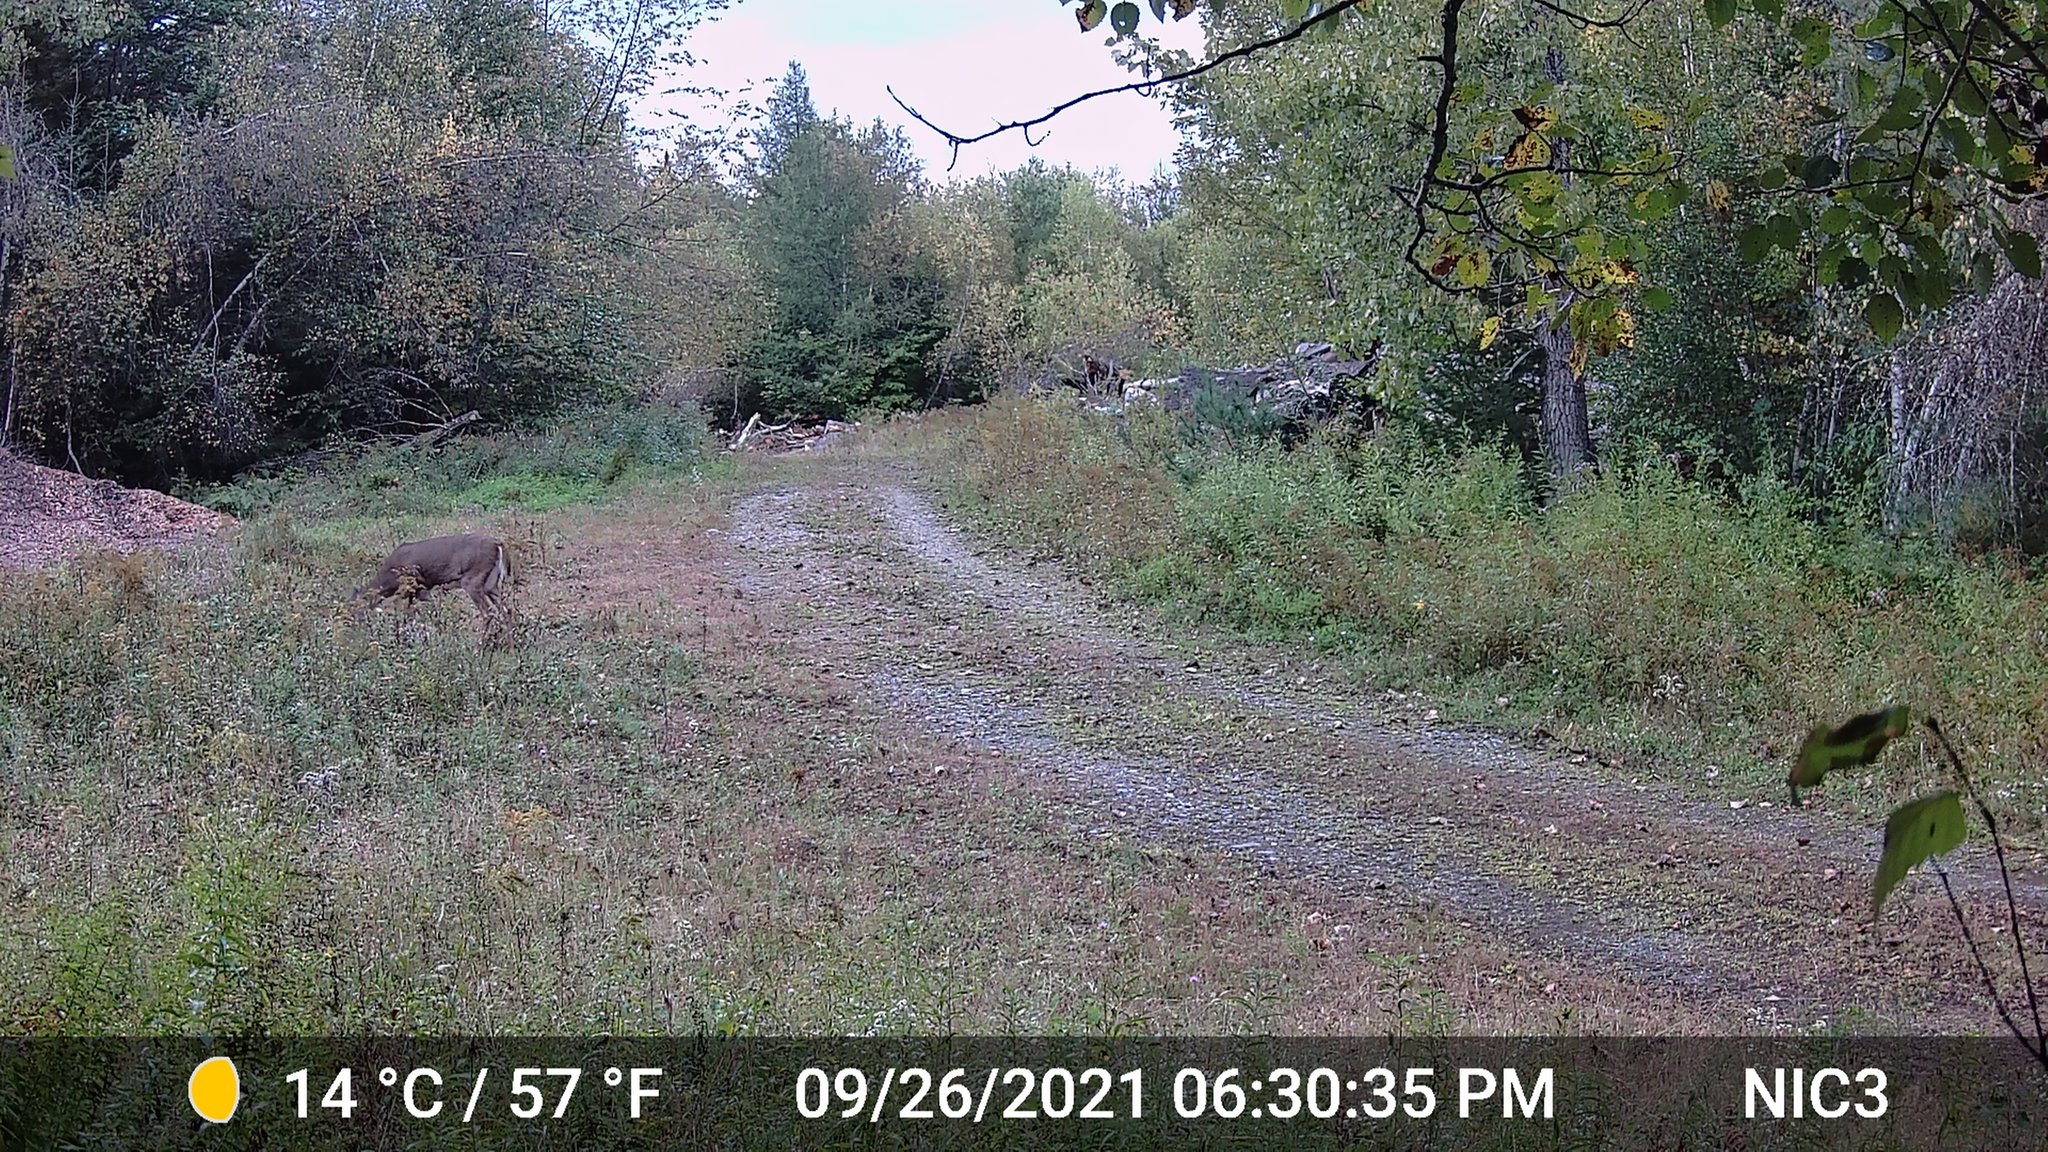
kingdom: Animalia
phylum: Chordata
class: Mammalia
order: Artiodactyla
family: Cervidae
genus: Odocoileus
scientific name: Odocoileus virginianus
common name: White-tailed deer
